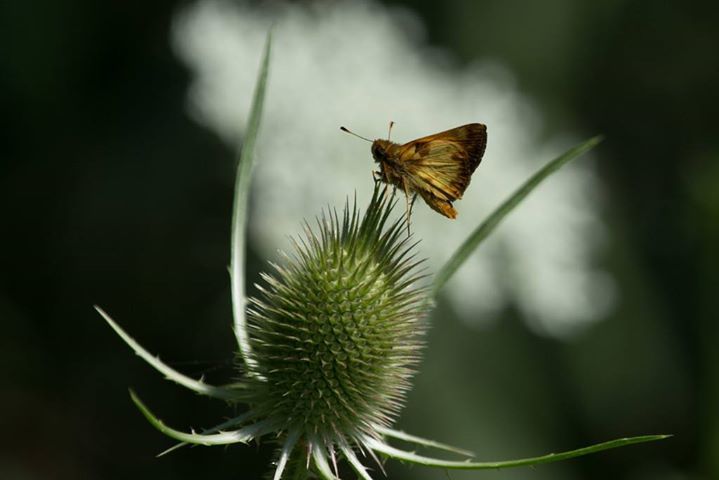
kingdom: Animalia
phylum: Arthropoda
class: Insecta
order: Lepidoptera
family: Hesperiidae
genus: Lon
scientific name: Lon zabulon
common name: Zabulon skipper
